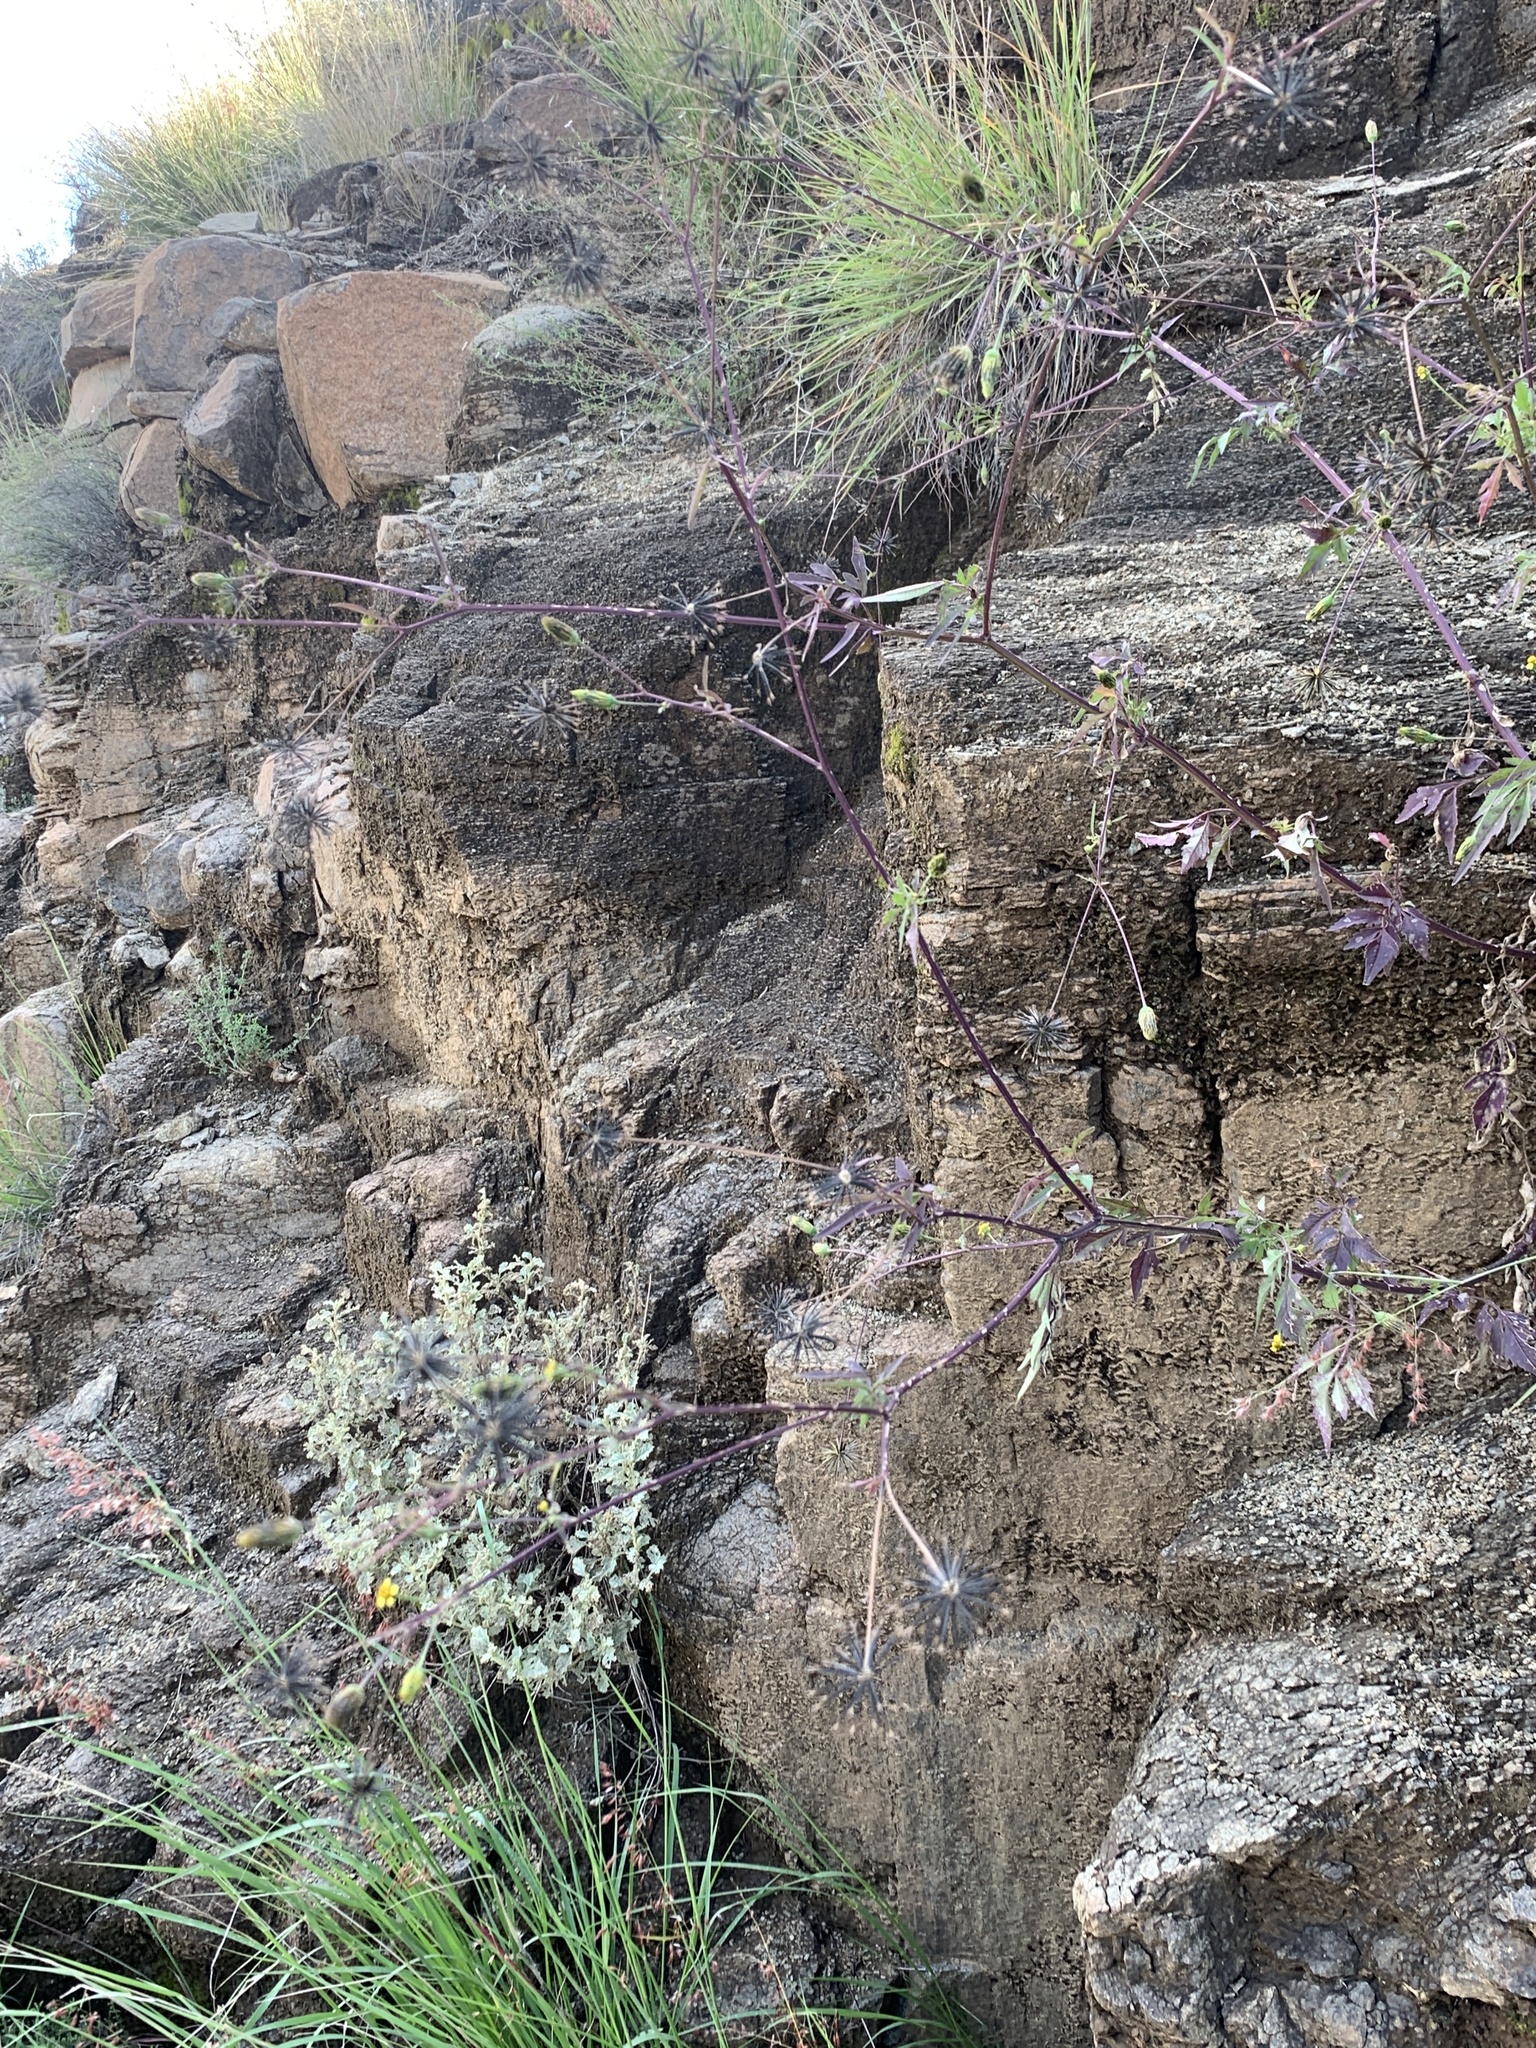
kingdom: Plantae
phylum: Tracheophyta
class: Magnoliopsida
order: Asterales
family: Asteraceae
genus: Bidens
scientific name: Bidens bipinnata
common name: Spanish-needles
